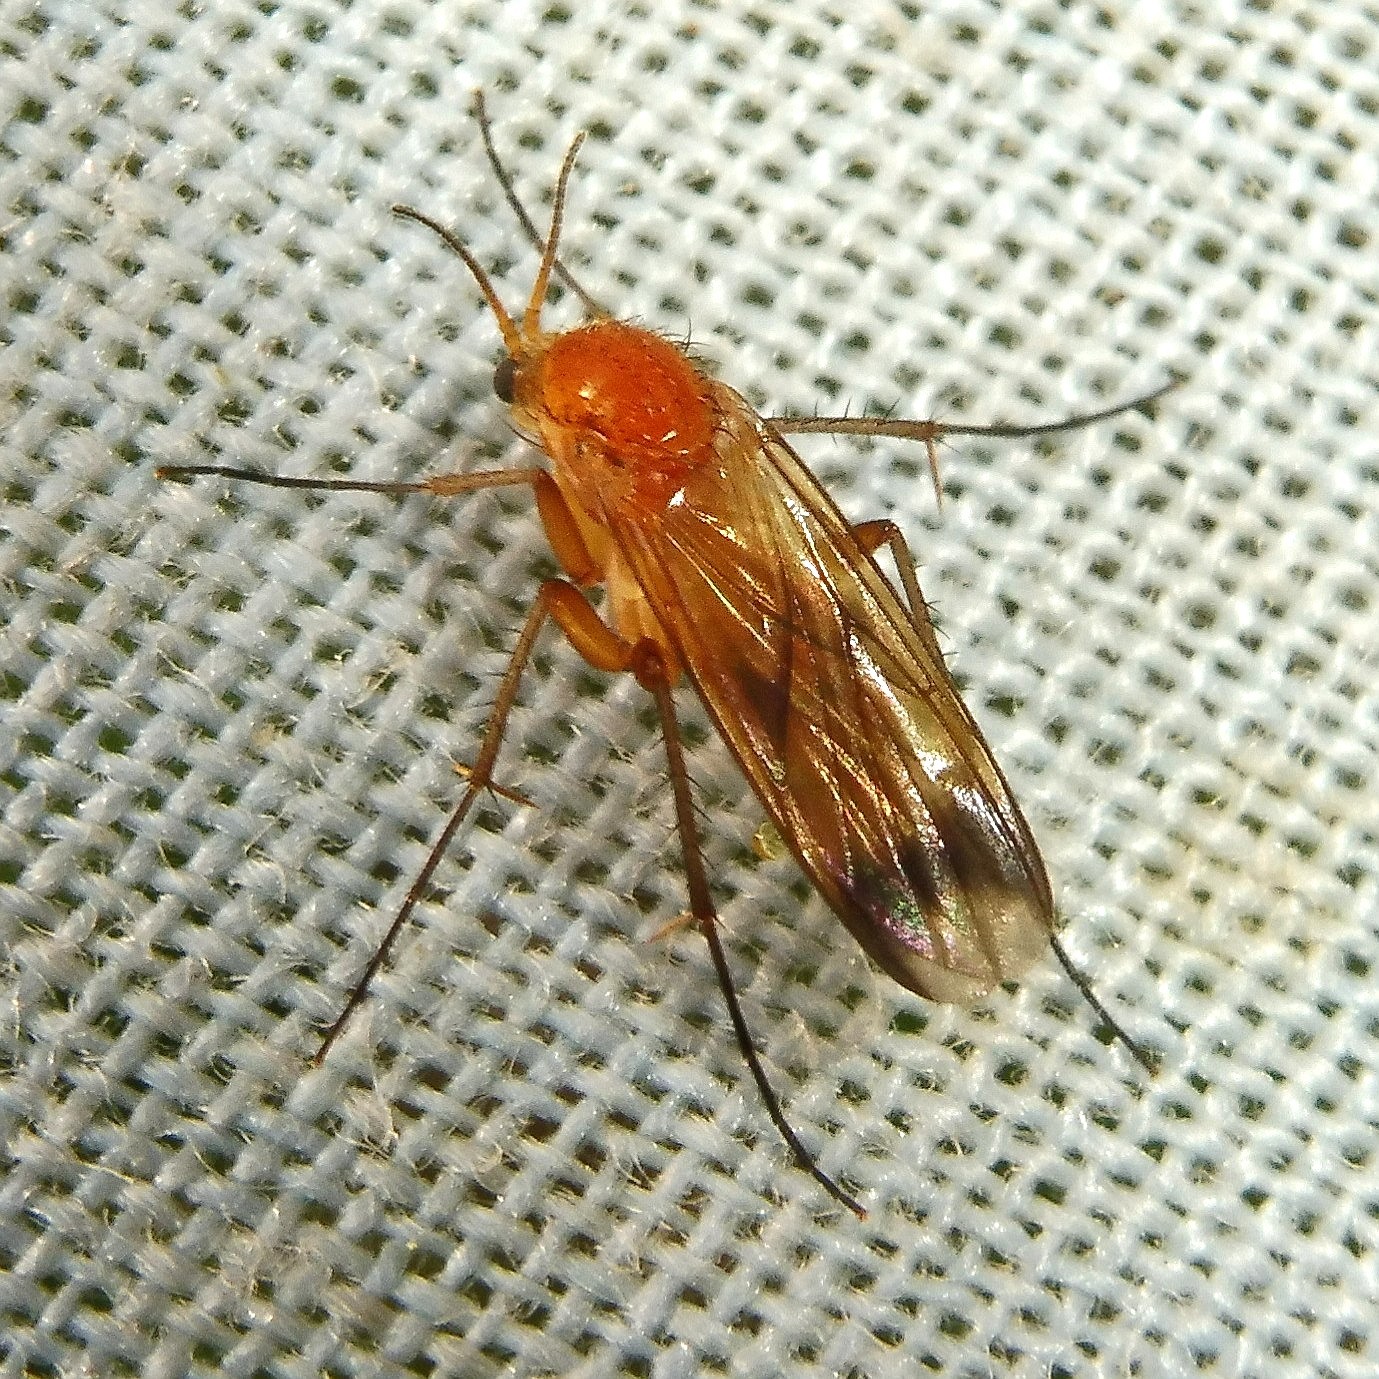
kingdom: Animalia
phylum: Arthropoda
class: Insecta
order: Diptera
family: Mycetophilidae
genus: Leia
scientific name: Leia fascipennis
